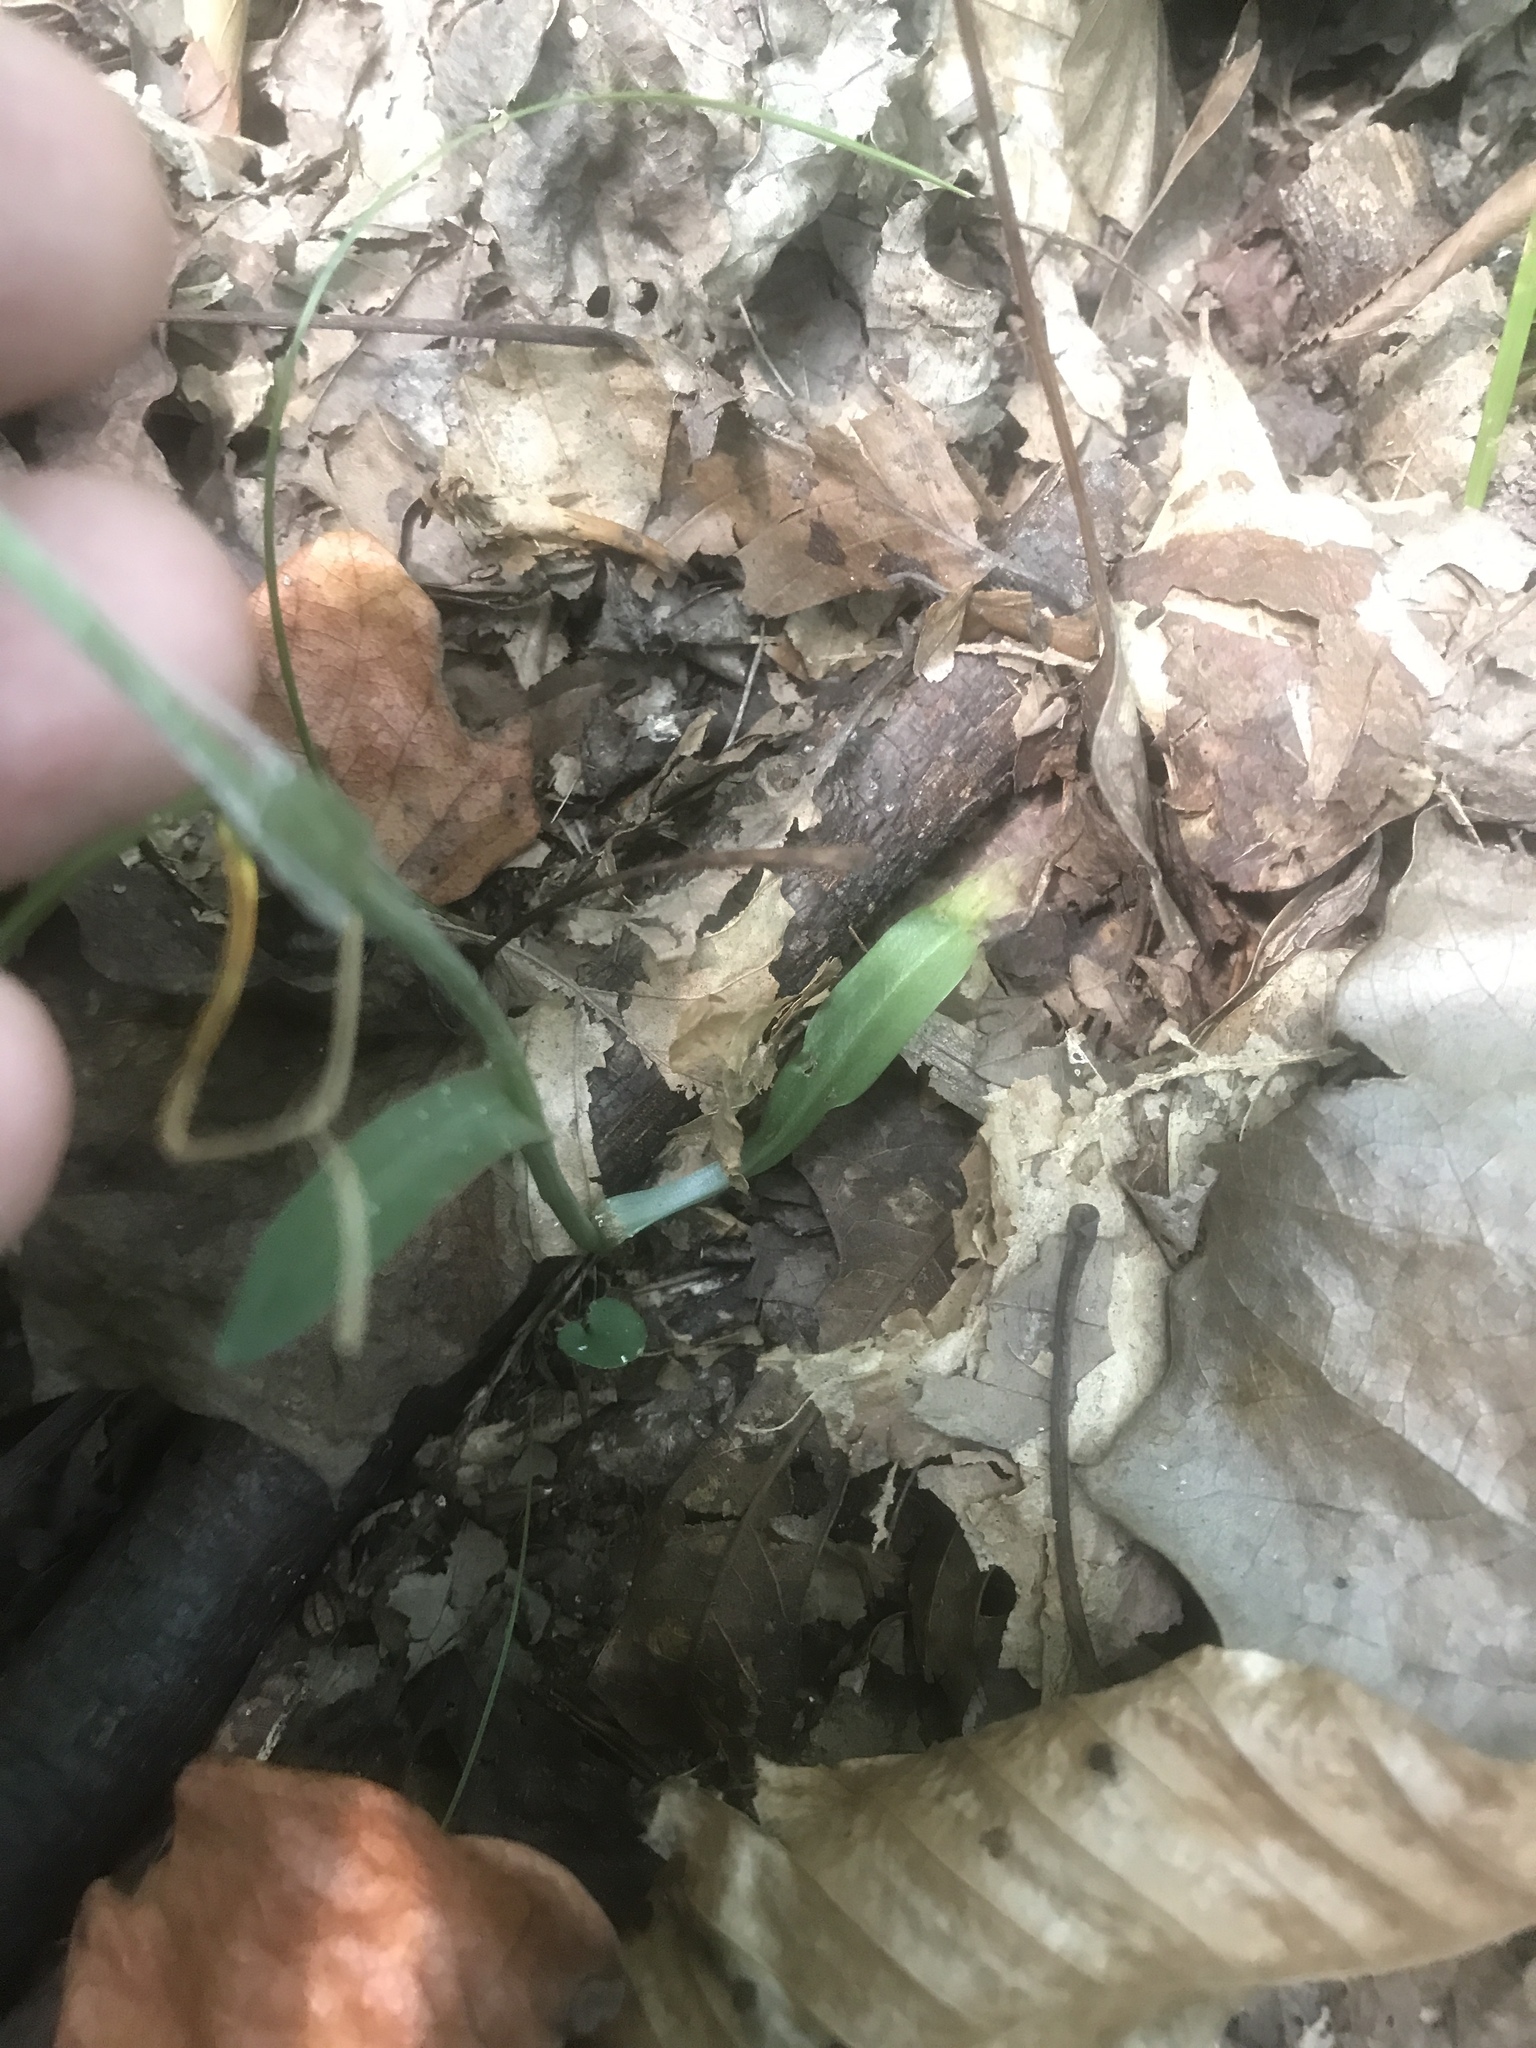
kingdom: Plantae
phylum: Tracheophyta
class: Liliopsida
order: Asparagales
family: Orchidaceae
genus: Spiranthes
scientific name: Spiranthes ovalis
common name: October ladies'-tresses
